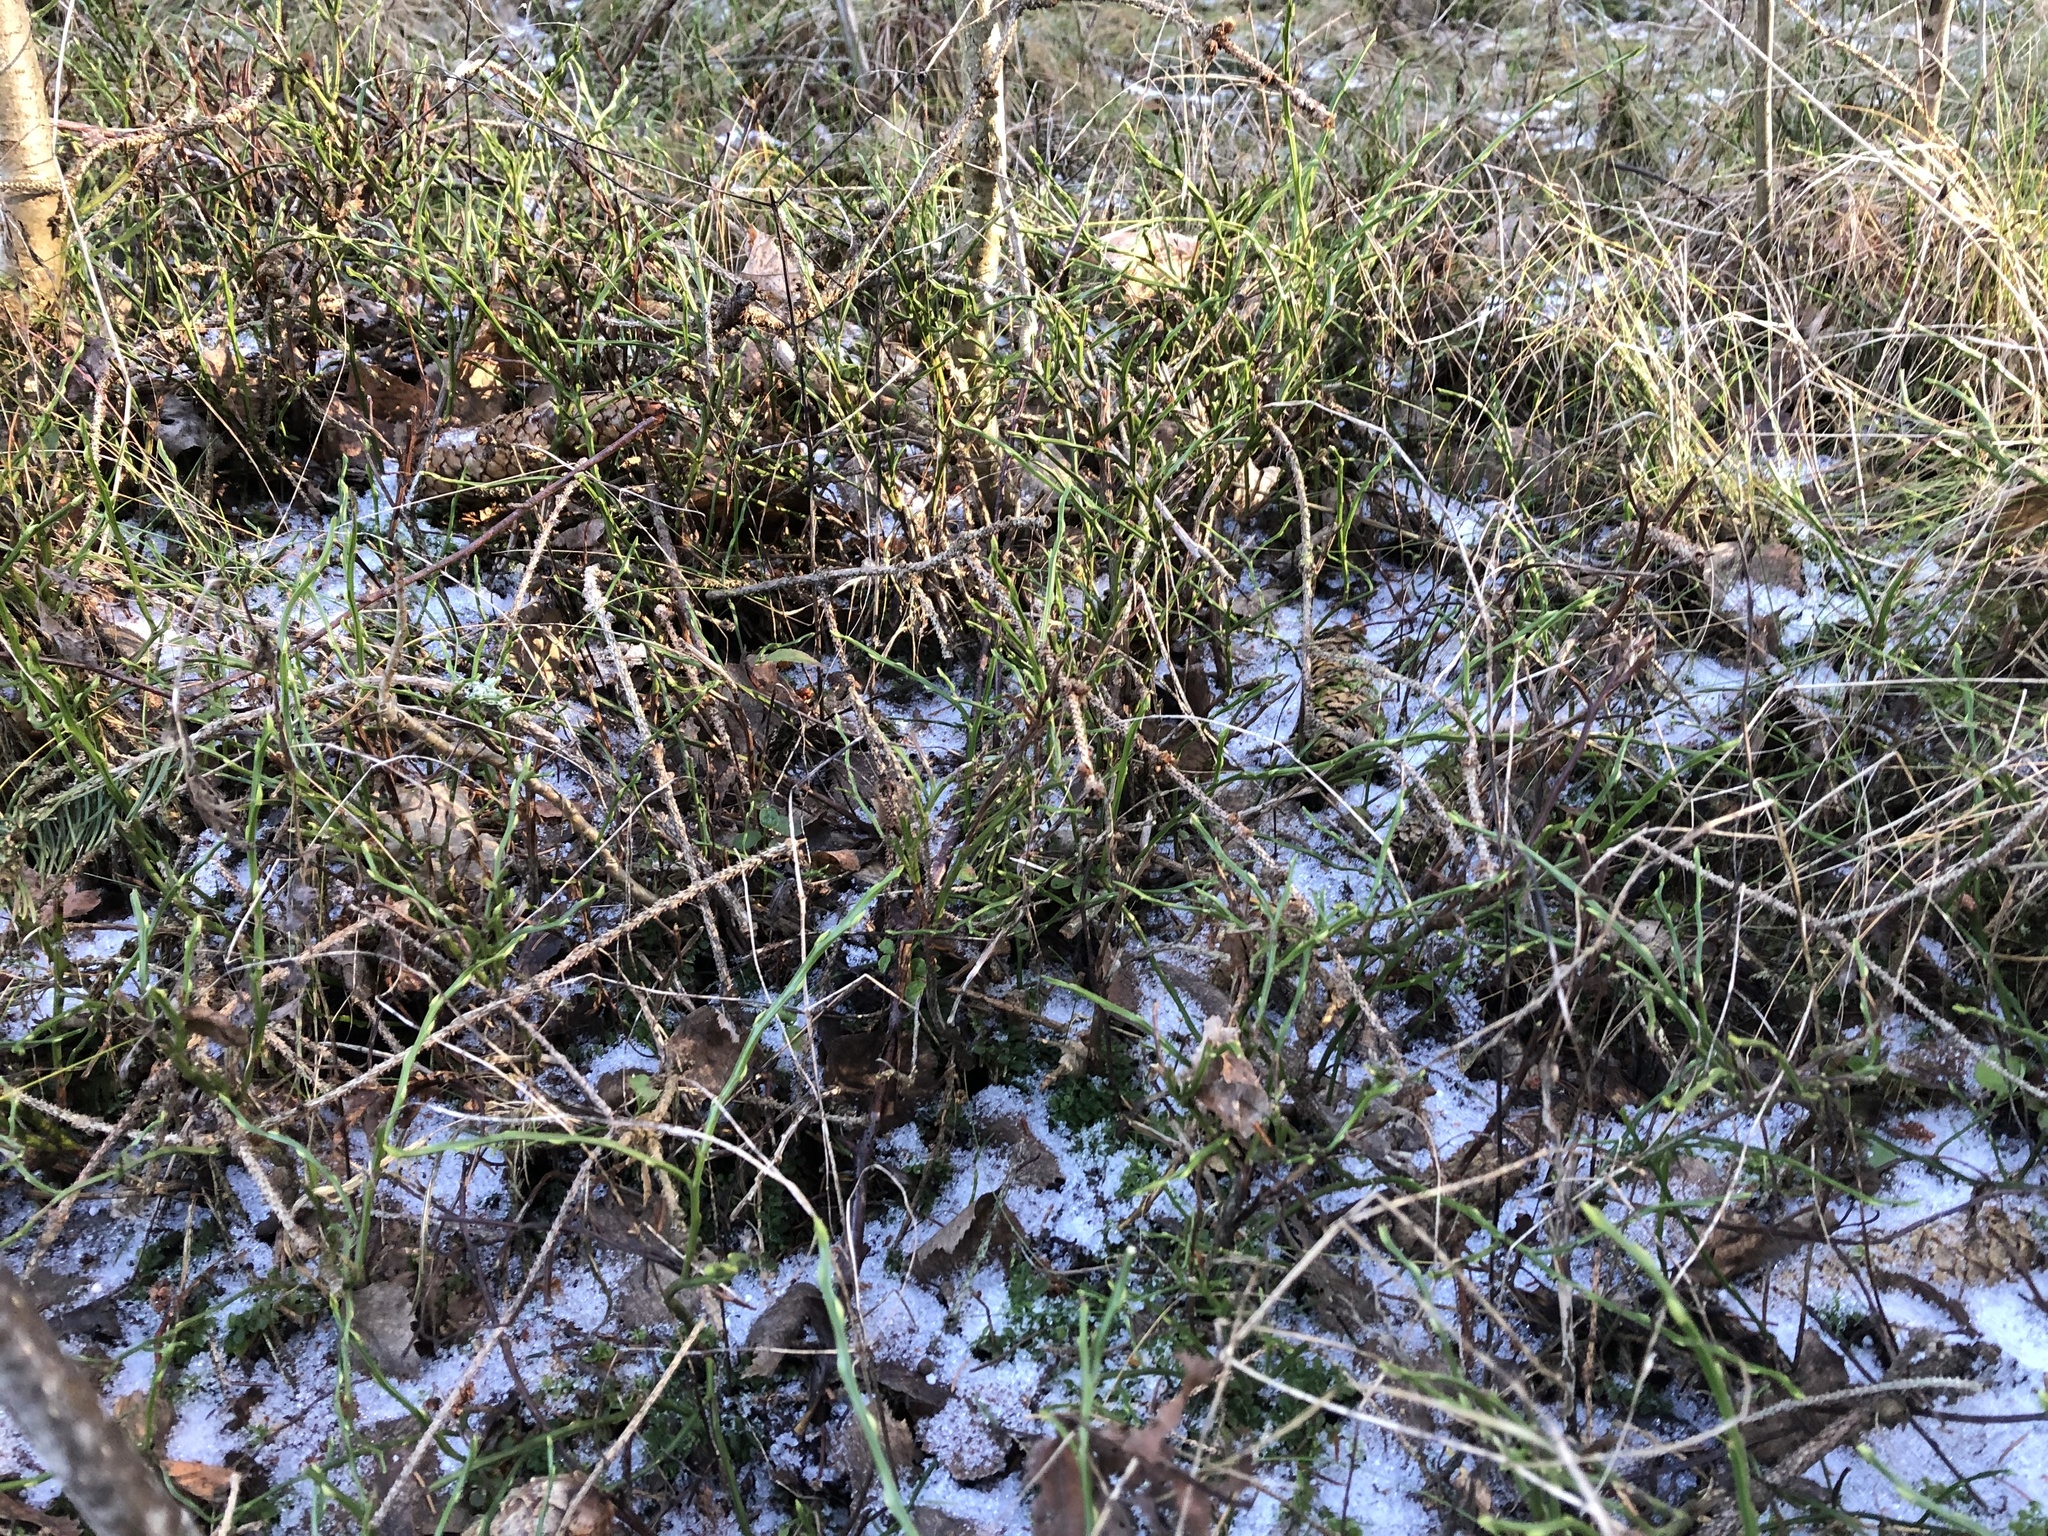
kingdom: Plantae
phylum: Tracheophyta
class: Magnoliopsida
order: Ericales
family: Ericaceae
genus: Vaccinium
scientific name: Vaccinium myrtillus
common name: Bilberry
